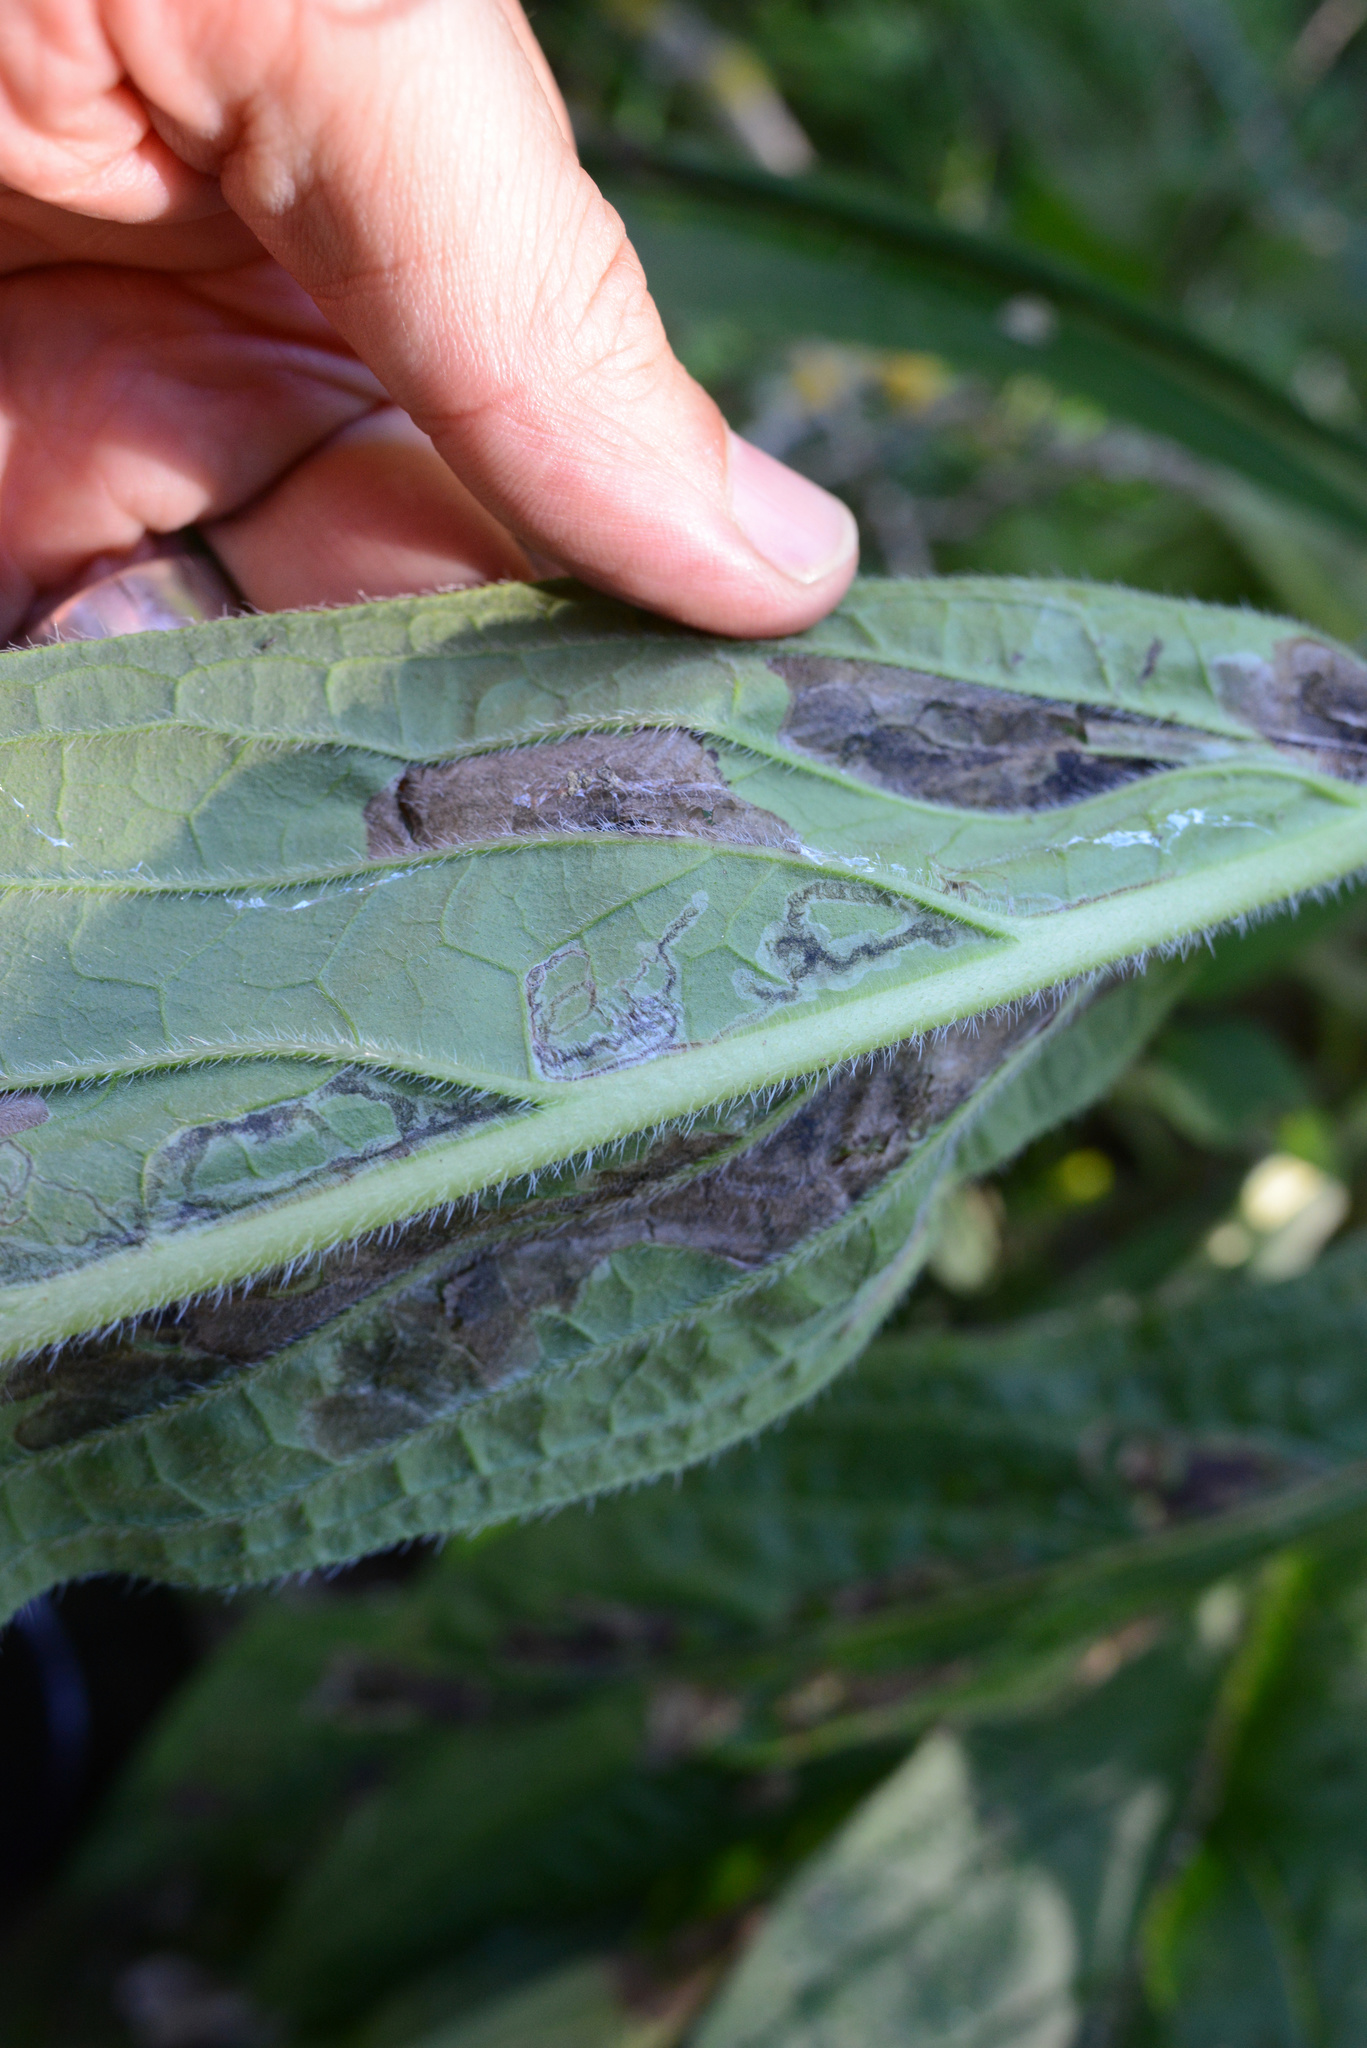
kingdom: Animalia
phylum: Arthropoda
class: Insecta
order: Lepidoptera
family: Gracillariidae
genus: Dialectica
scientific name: Dialectica scalariella
